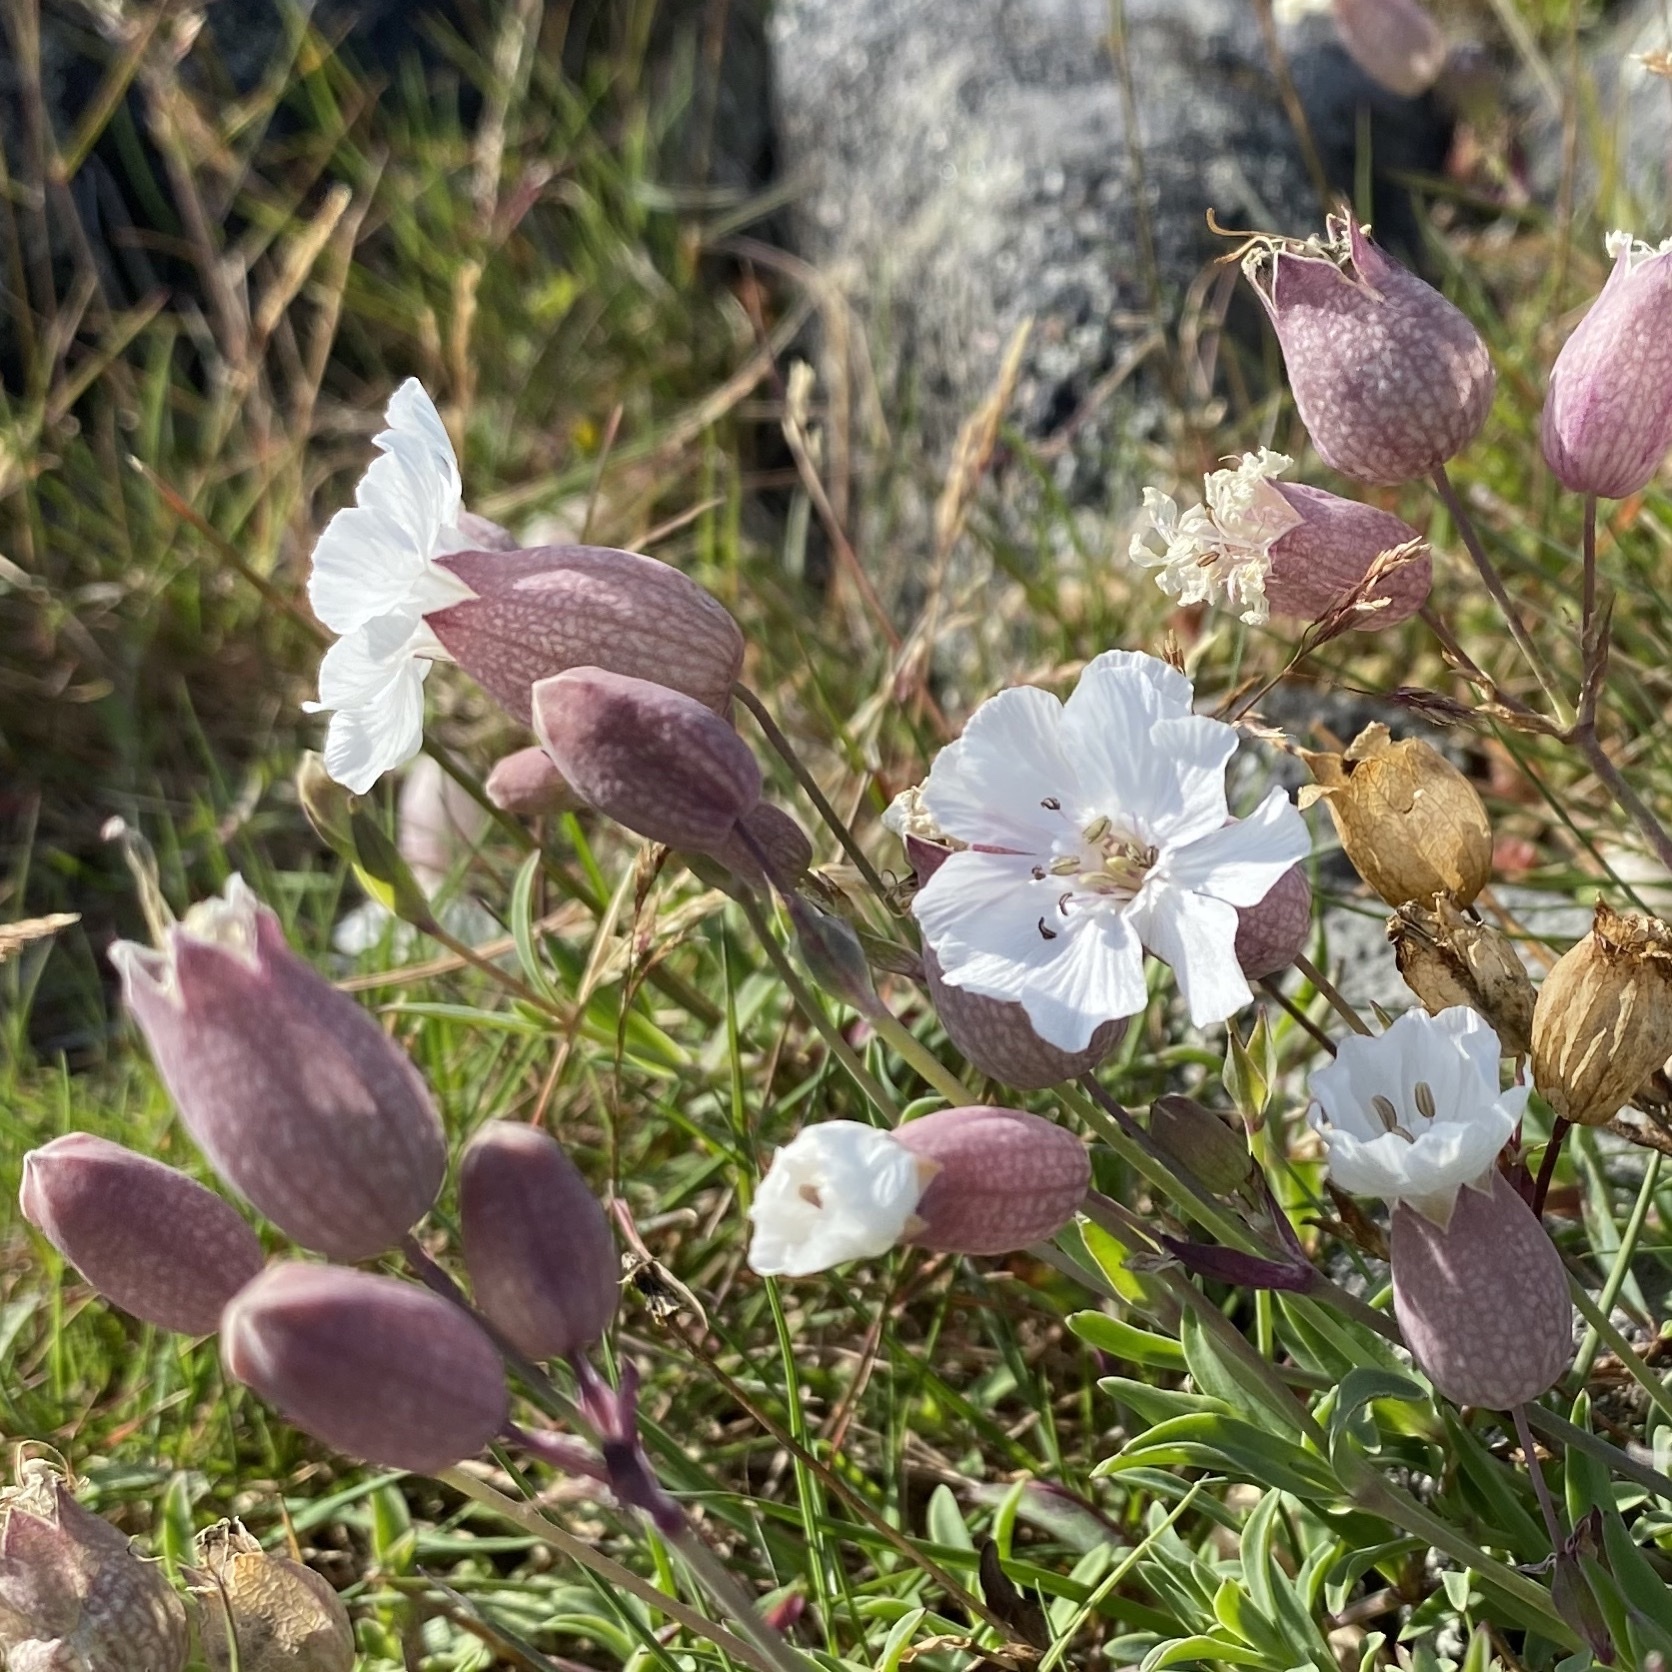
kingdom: Plantae
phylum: Tracheophyta
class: Magnoliopsida
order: Caryophyllales
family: Caryophyllaceae
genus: Silene
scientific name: Silene uniflora
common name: Sea campion
